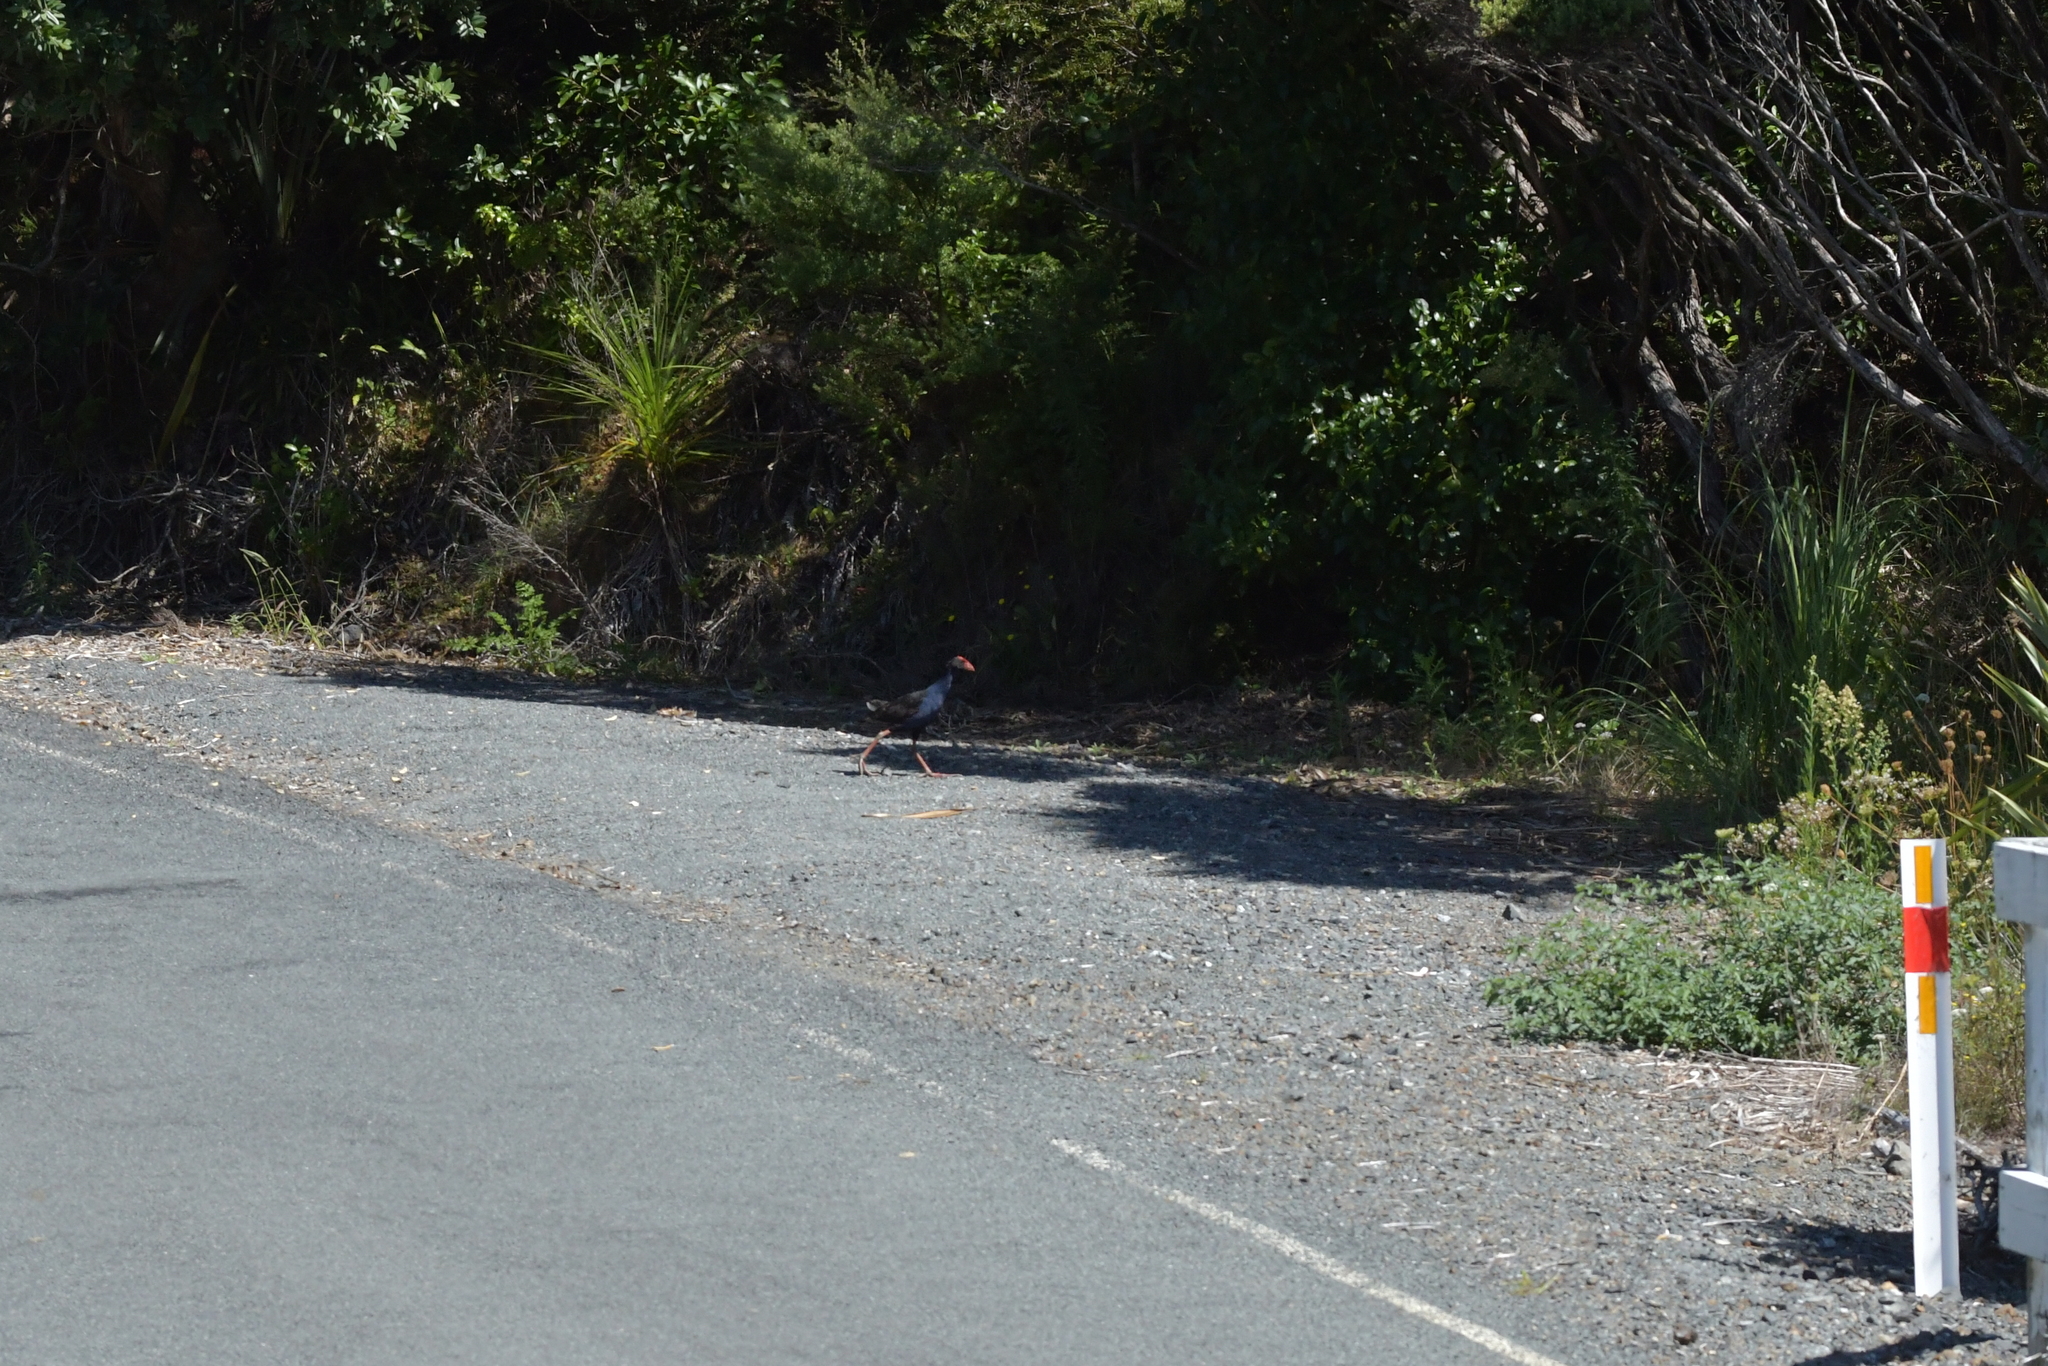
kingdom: Animalia
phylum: Chordata
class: Aves
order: Gruiformes
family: Rallidae
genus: Porphyrio
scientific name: Porphyrio melanotus
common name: Australasian swamphen
